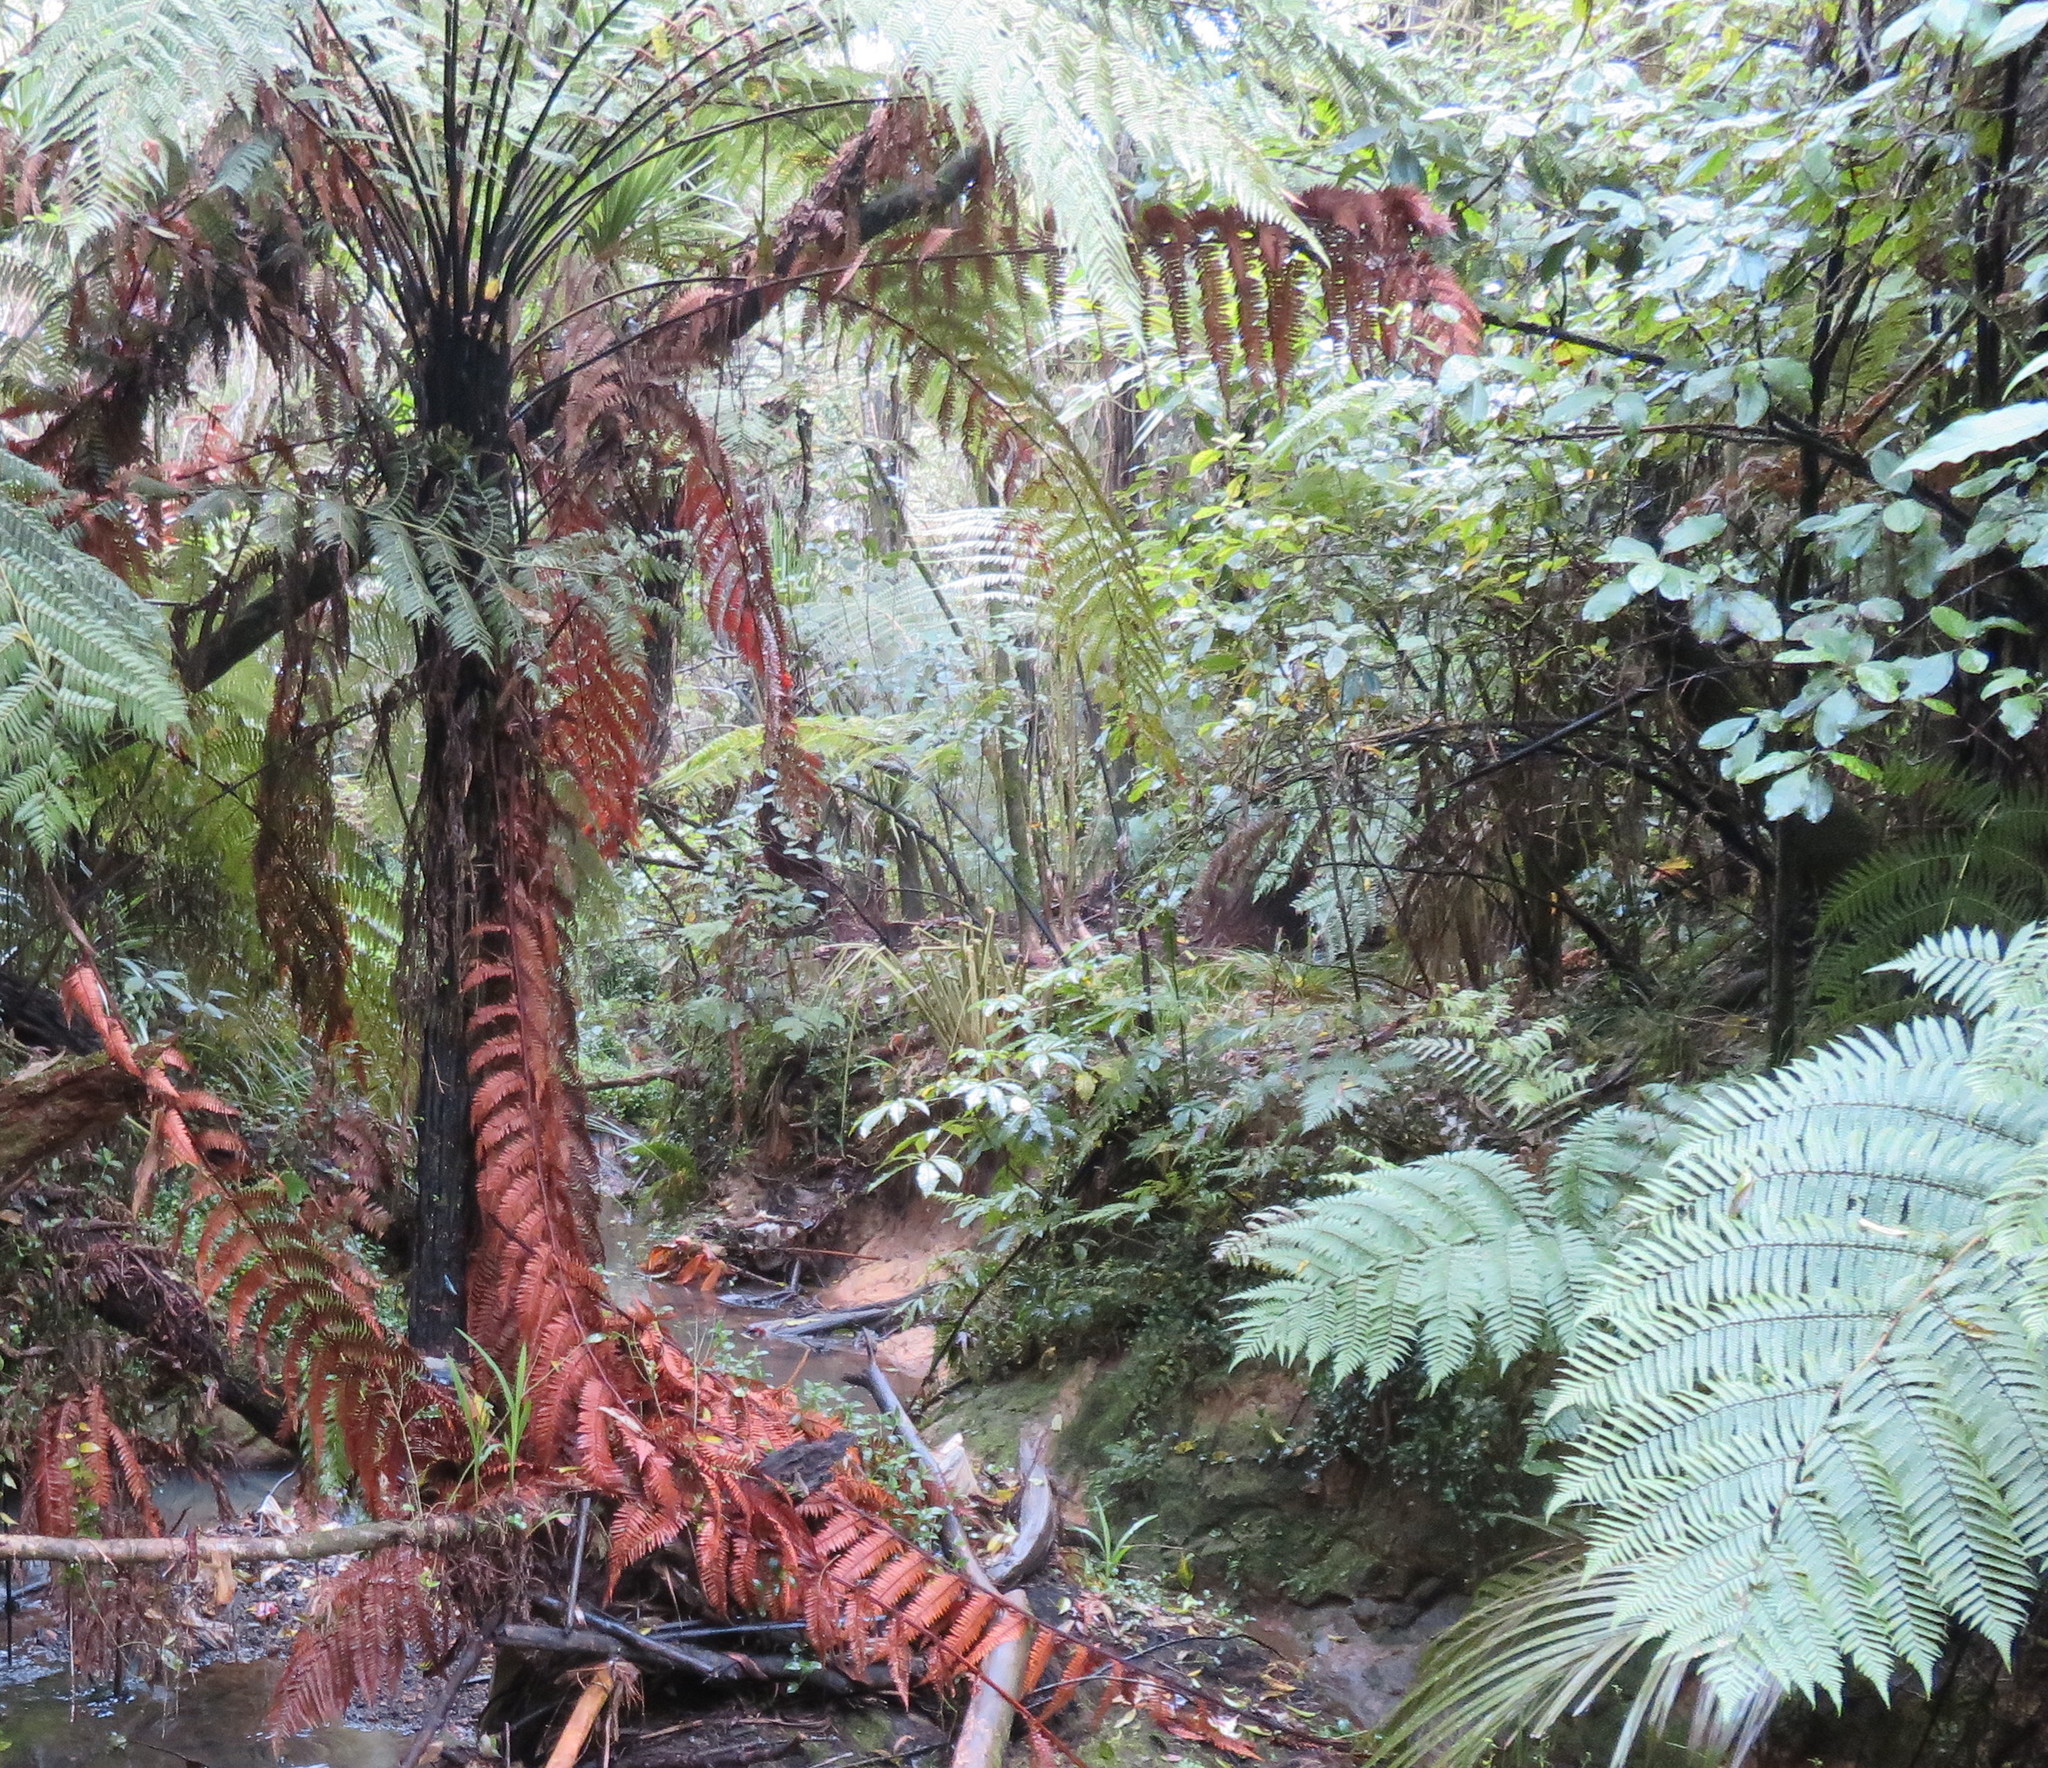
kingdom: Plantae
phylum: Tracheophyta
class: Magnoliopsida
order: Apiales
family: Araliaceae
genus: Schefflera
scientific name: Schefflera digitata
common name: Pate
